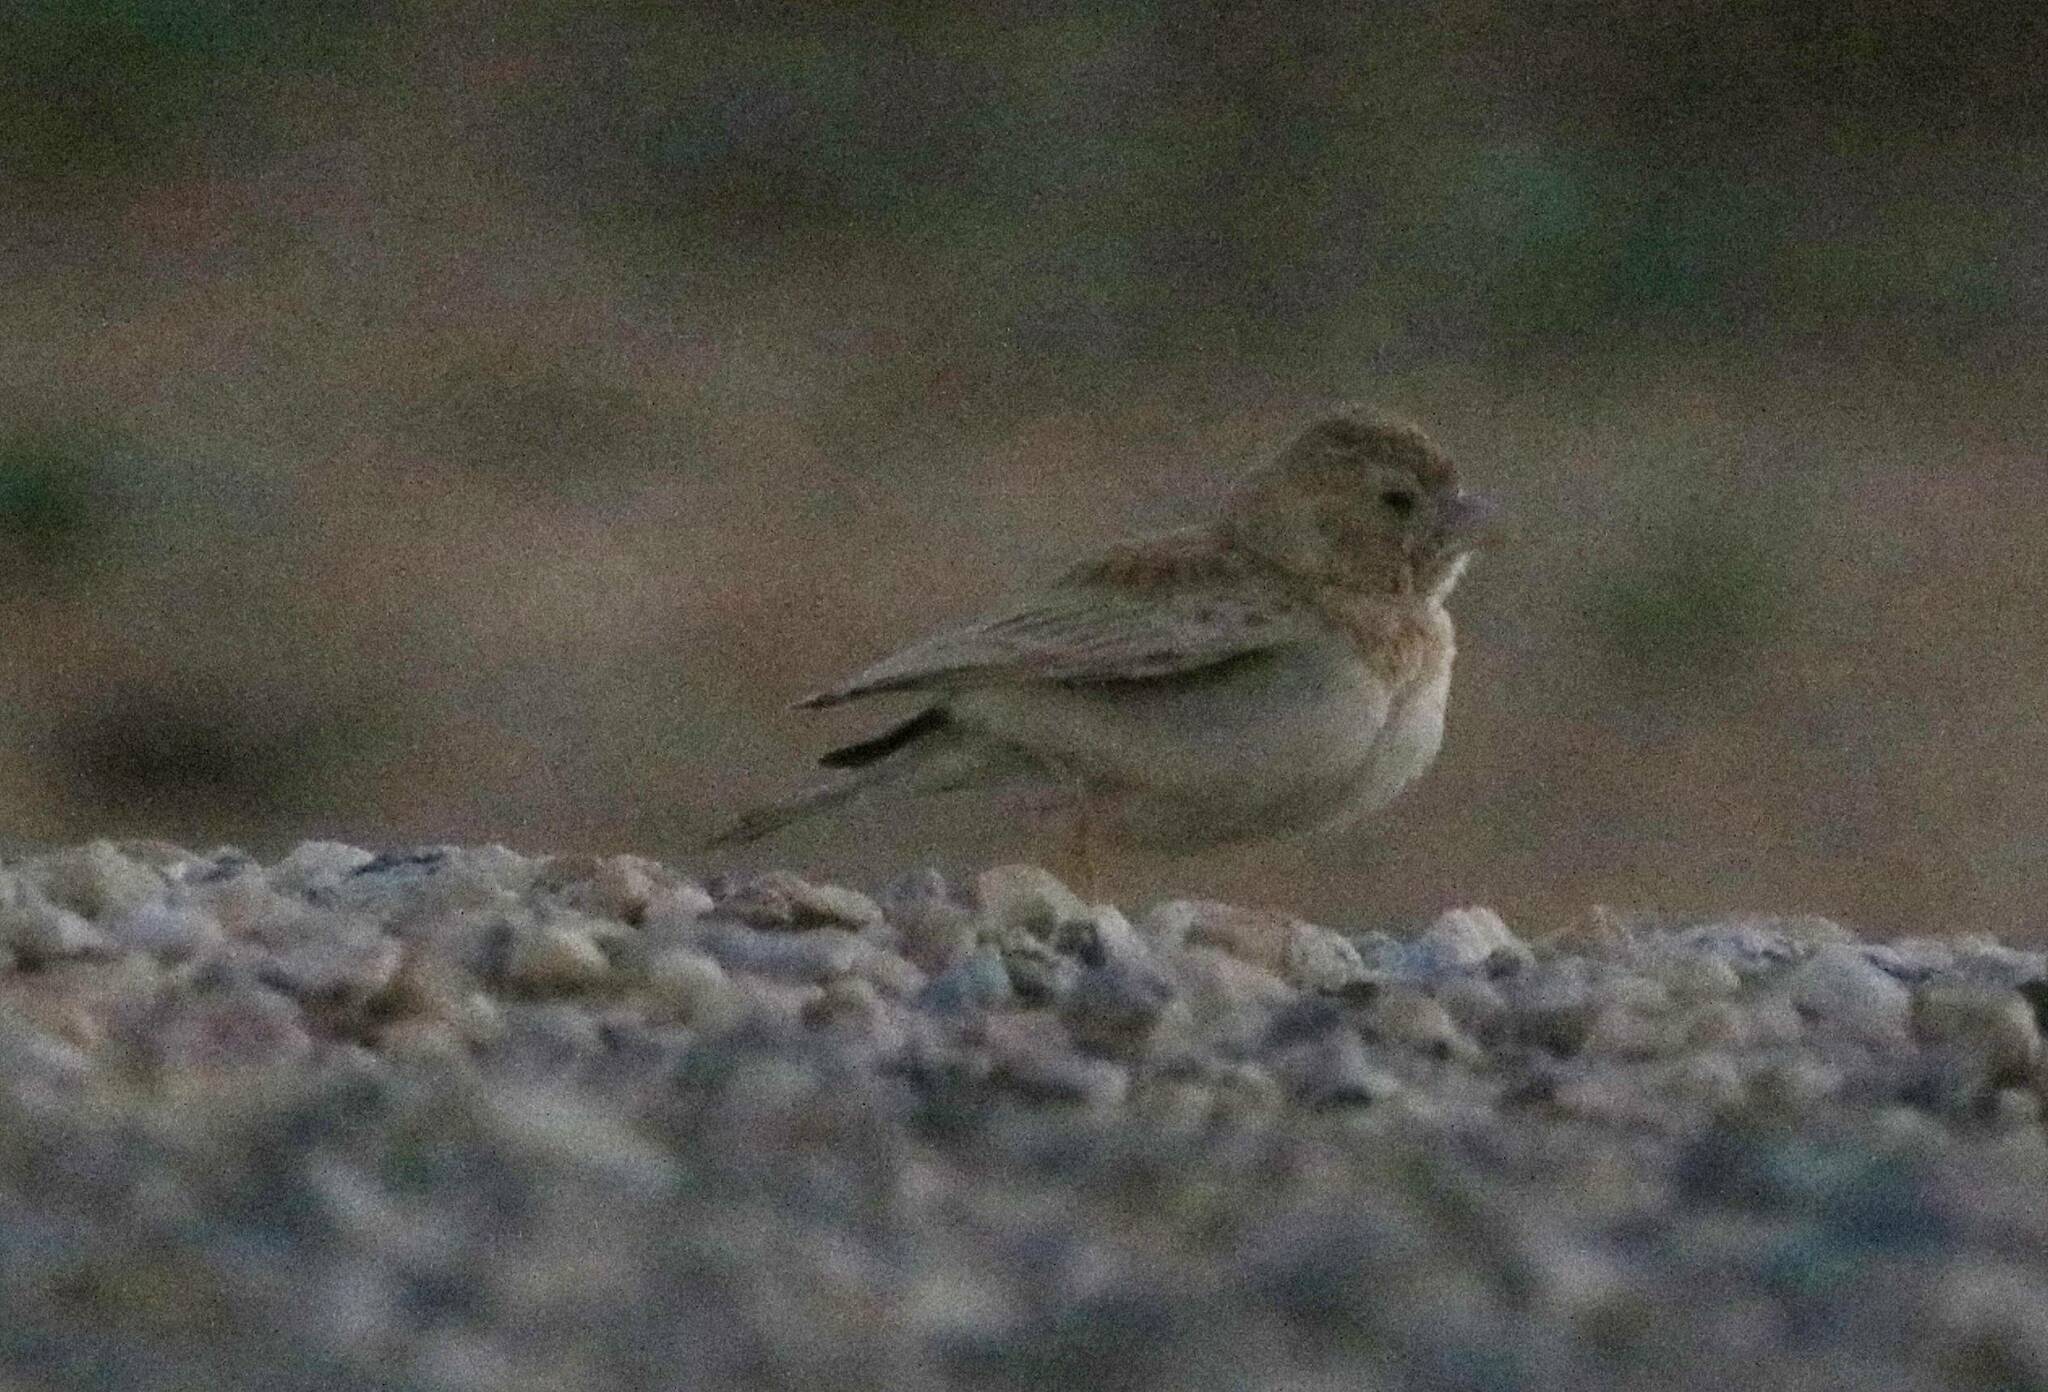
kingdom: Animalia
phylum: Chordata
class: Aves
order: Passeriformes
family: Alaudidae
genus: Eremopterix
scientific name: Eremopterix nigriceps
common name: Black-crowned sparrow-lark
